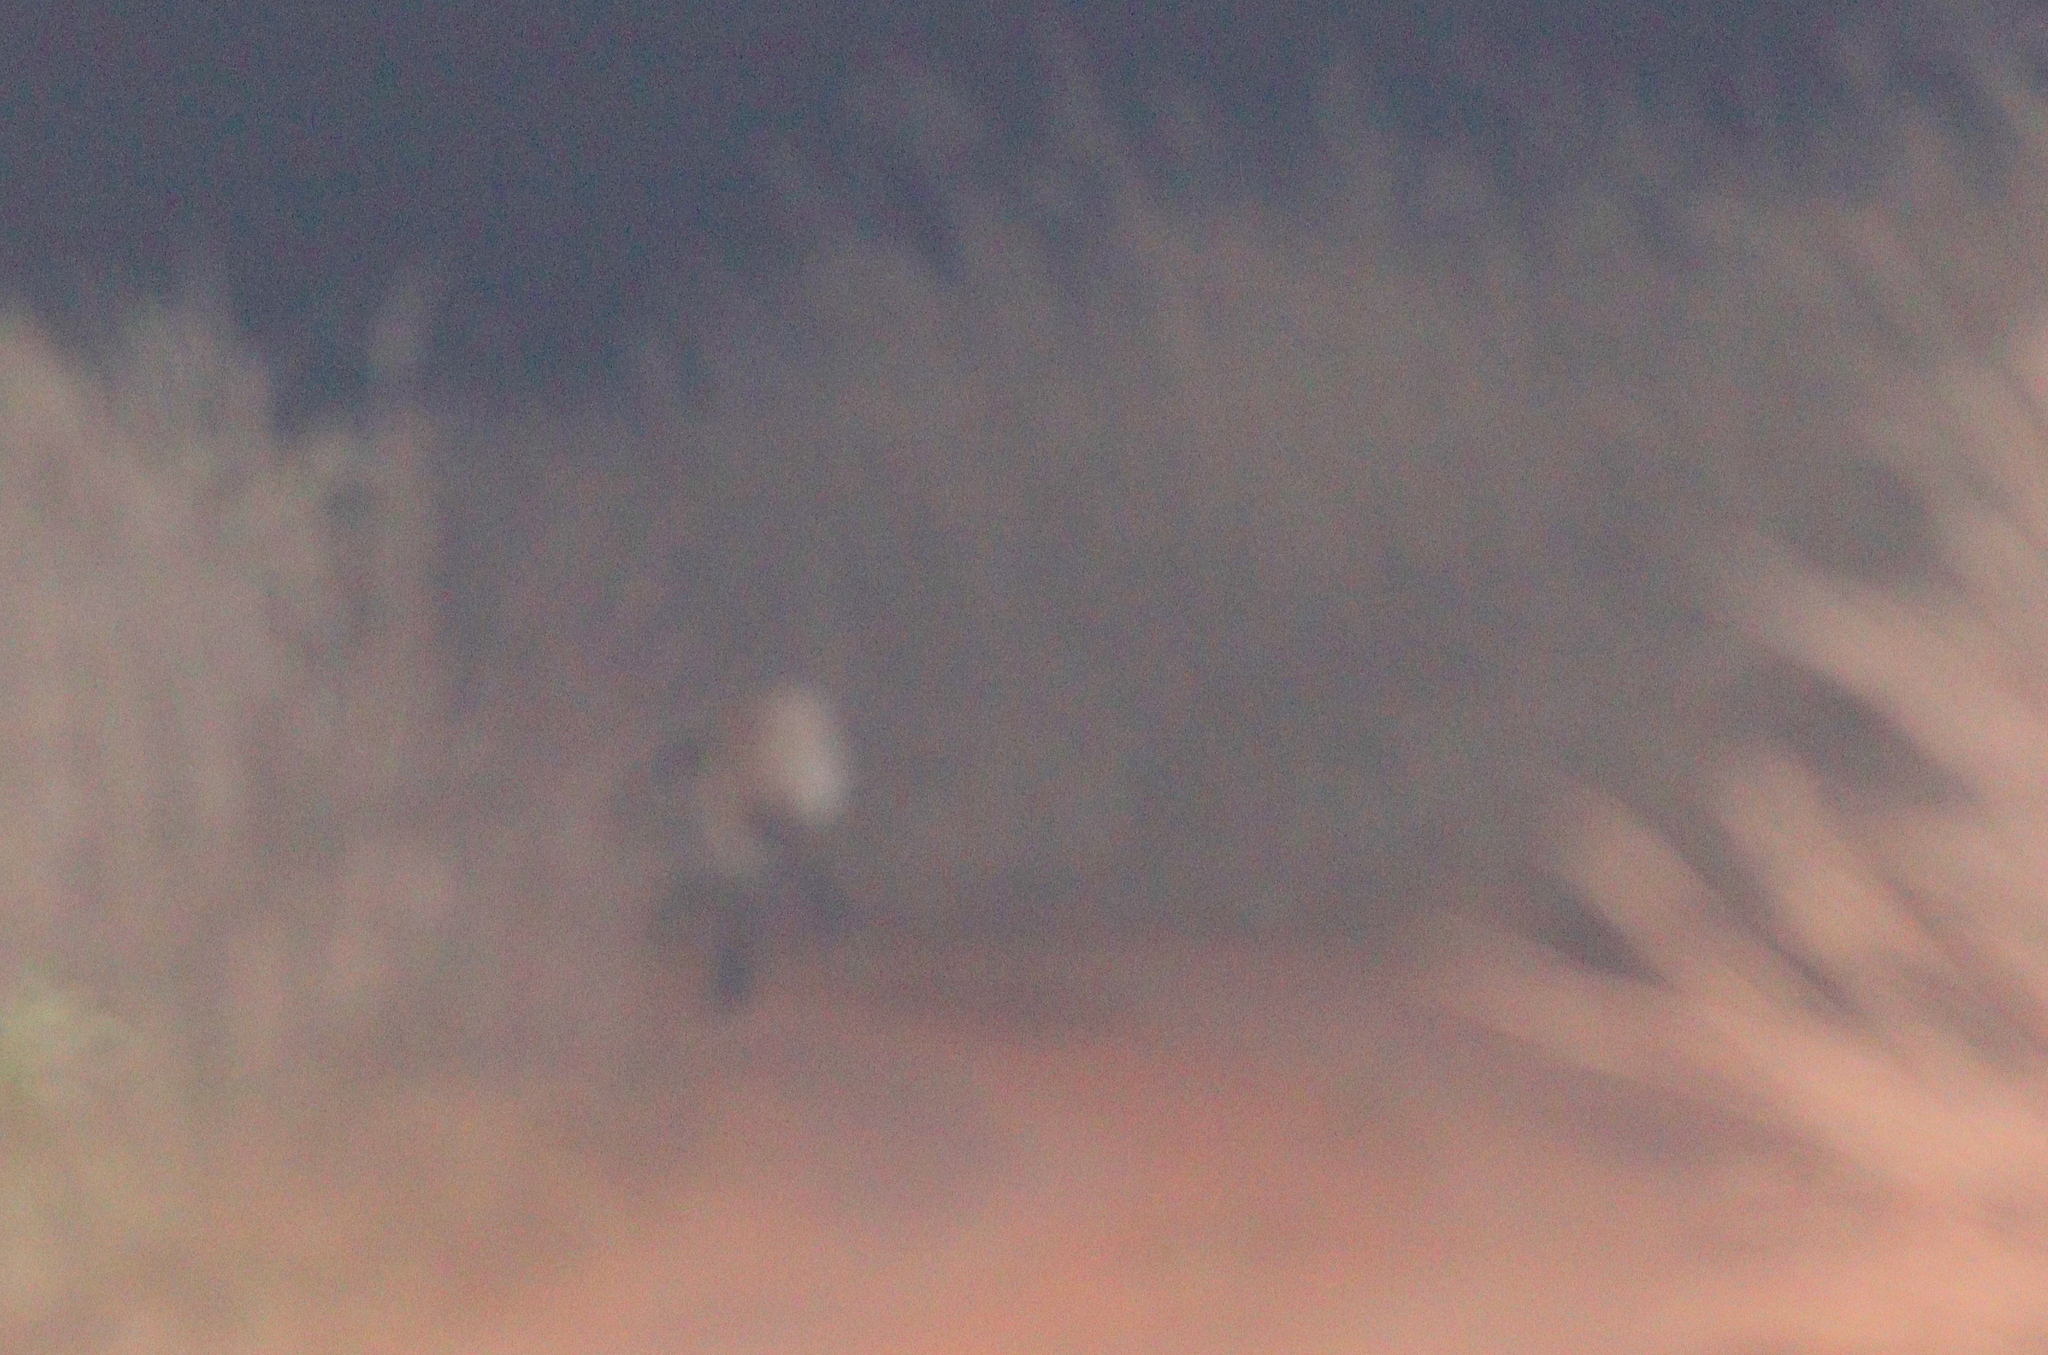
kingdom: Animalia
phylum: Chordata
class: Mammalia
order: Carnivora
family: Canidae
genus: Chrysocyon
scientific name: Chrysocyon brachyurus
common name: Maned wolf
